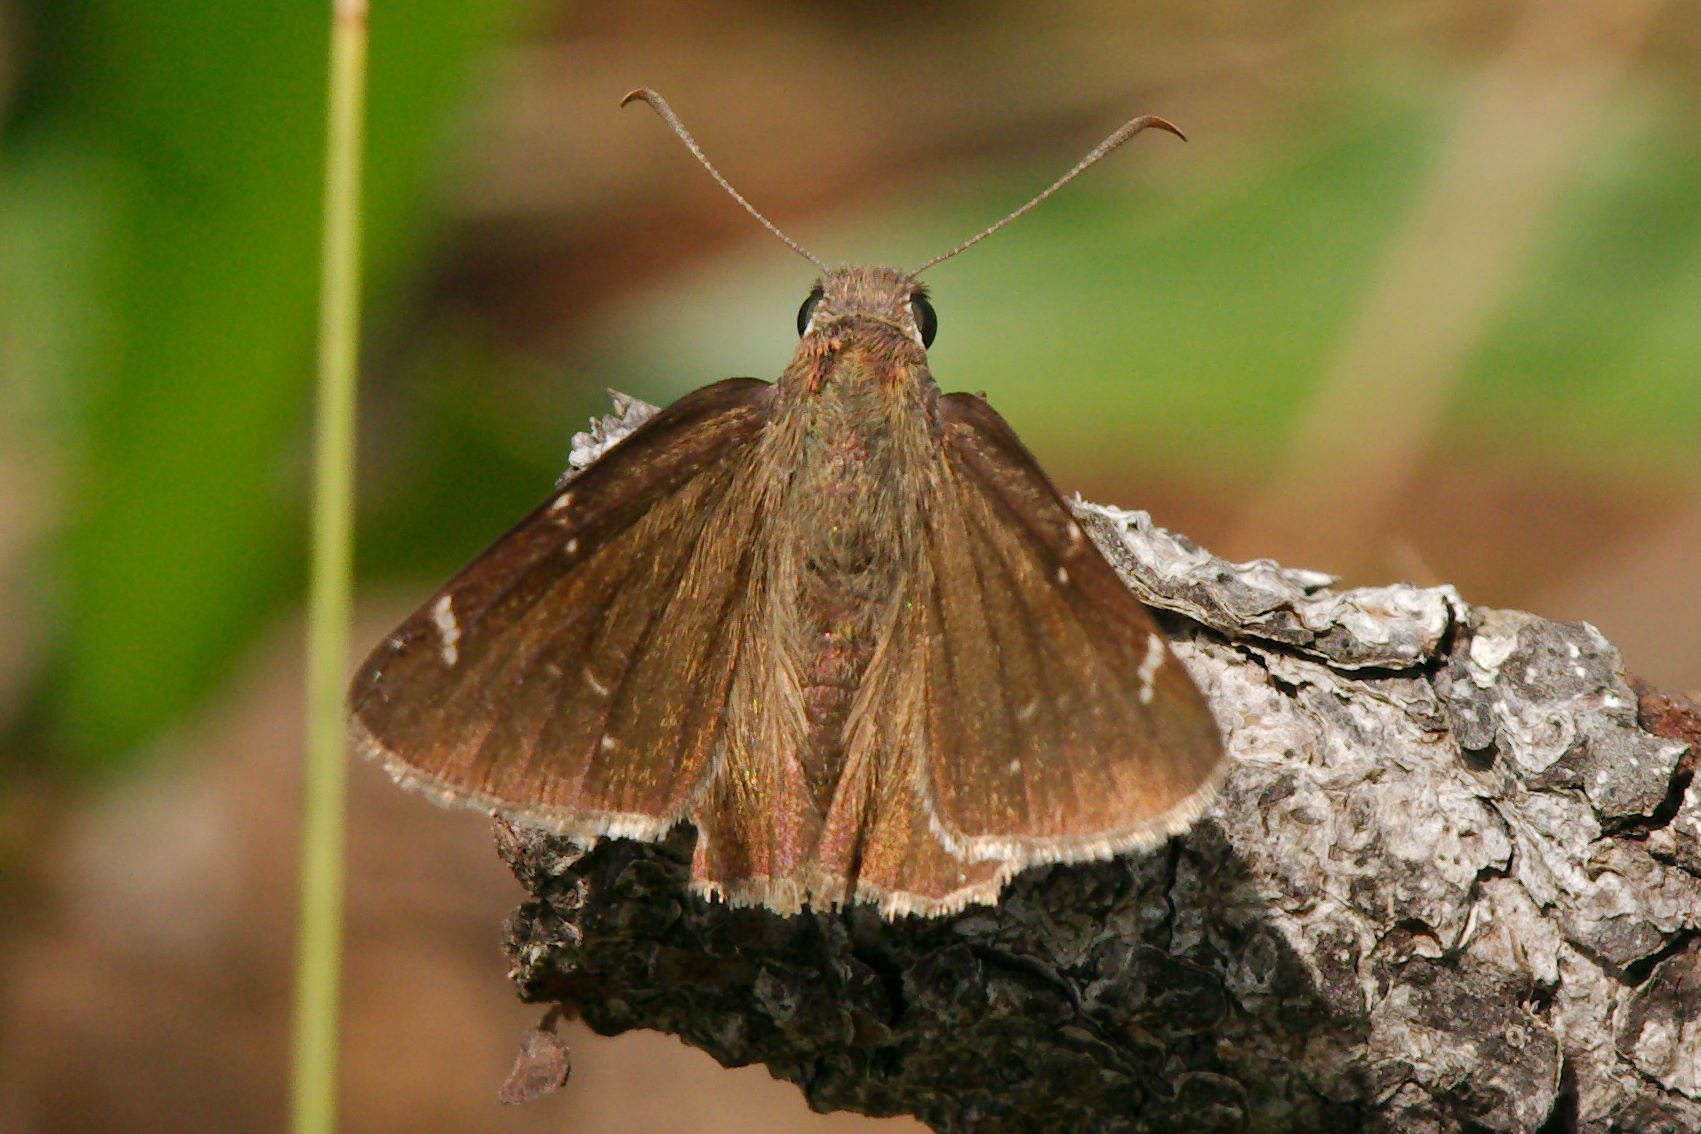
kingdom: Animalia
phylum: Arthropoda
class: Insecta
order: Lepidoptera
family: Hesperiidae
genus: Thorybes
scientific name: Thorybes mexicana
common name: Mexican cloudywing
